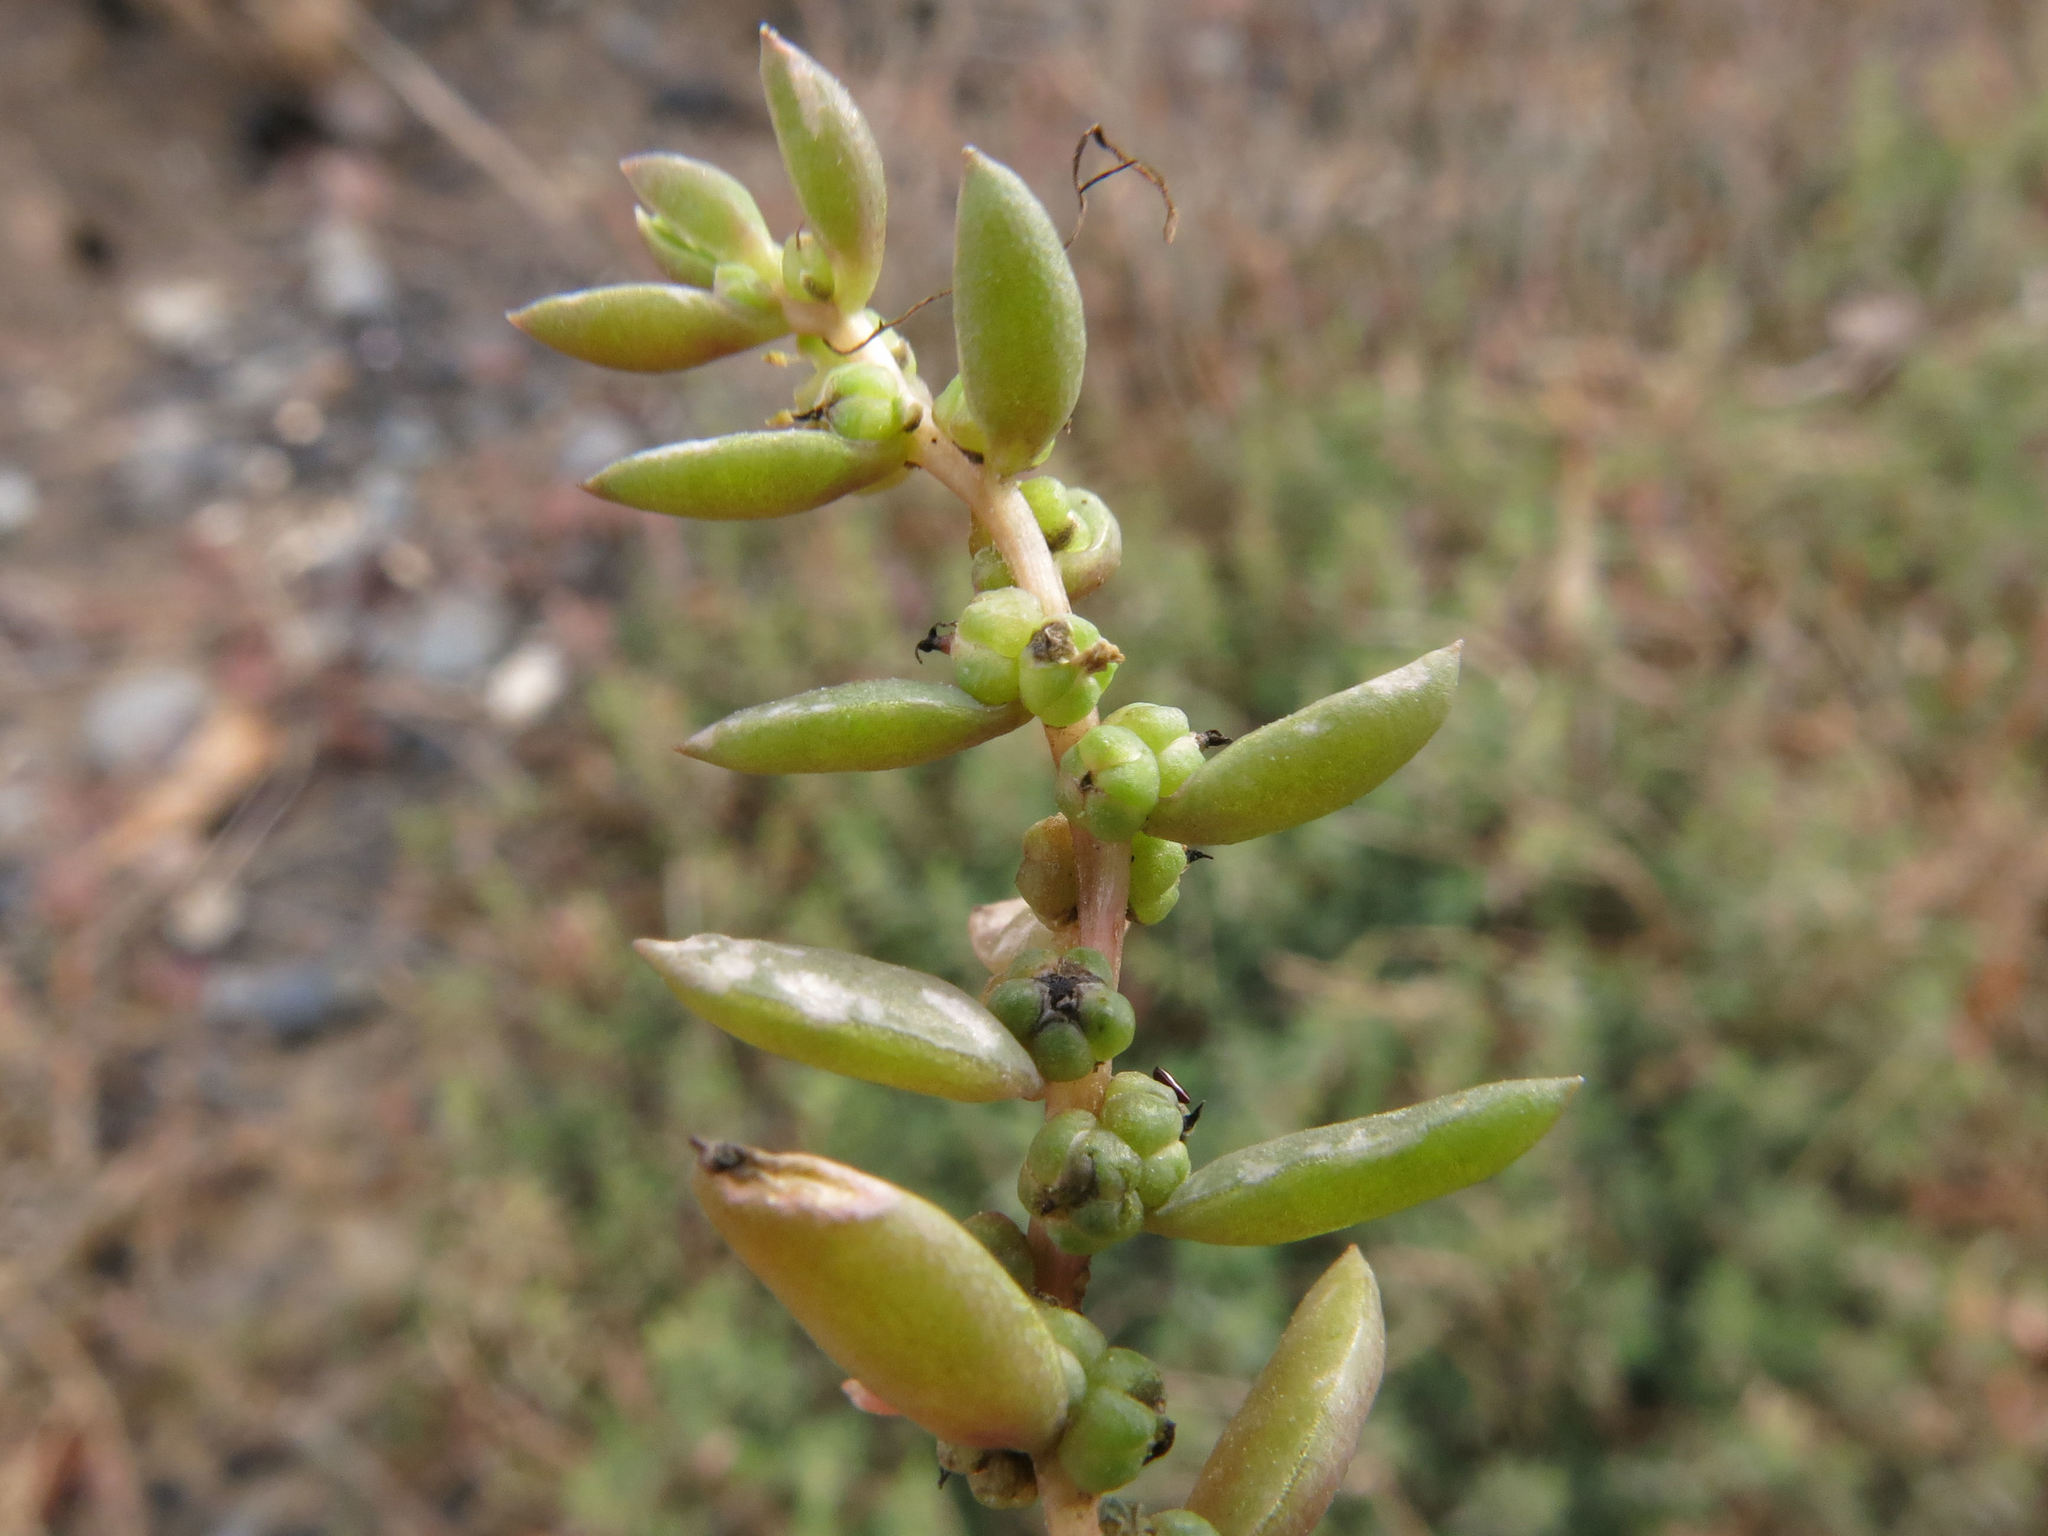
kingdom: Plantae
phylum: Tracheophyta
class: Magnoliopsida
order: Caryophyllales
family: Amaranthaceae
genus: Suaeda
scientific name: Suaeda novae-zelandiae
